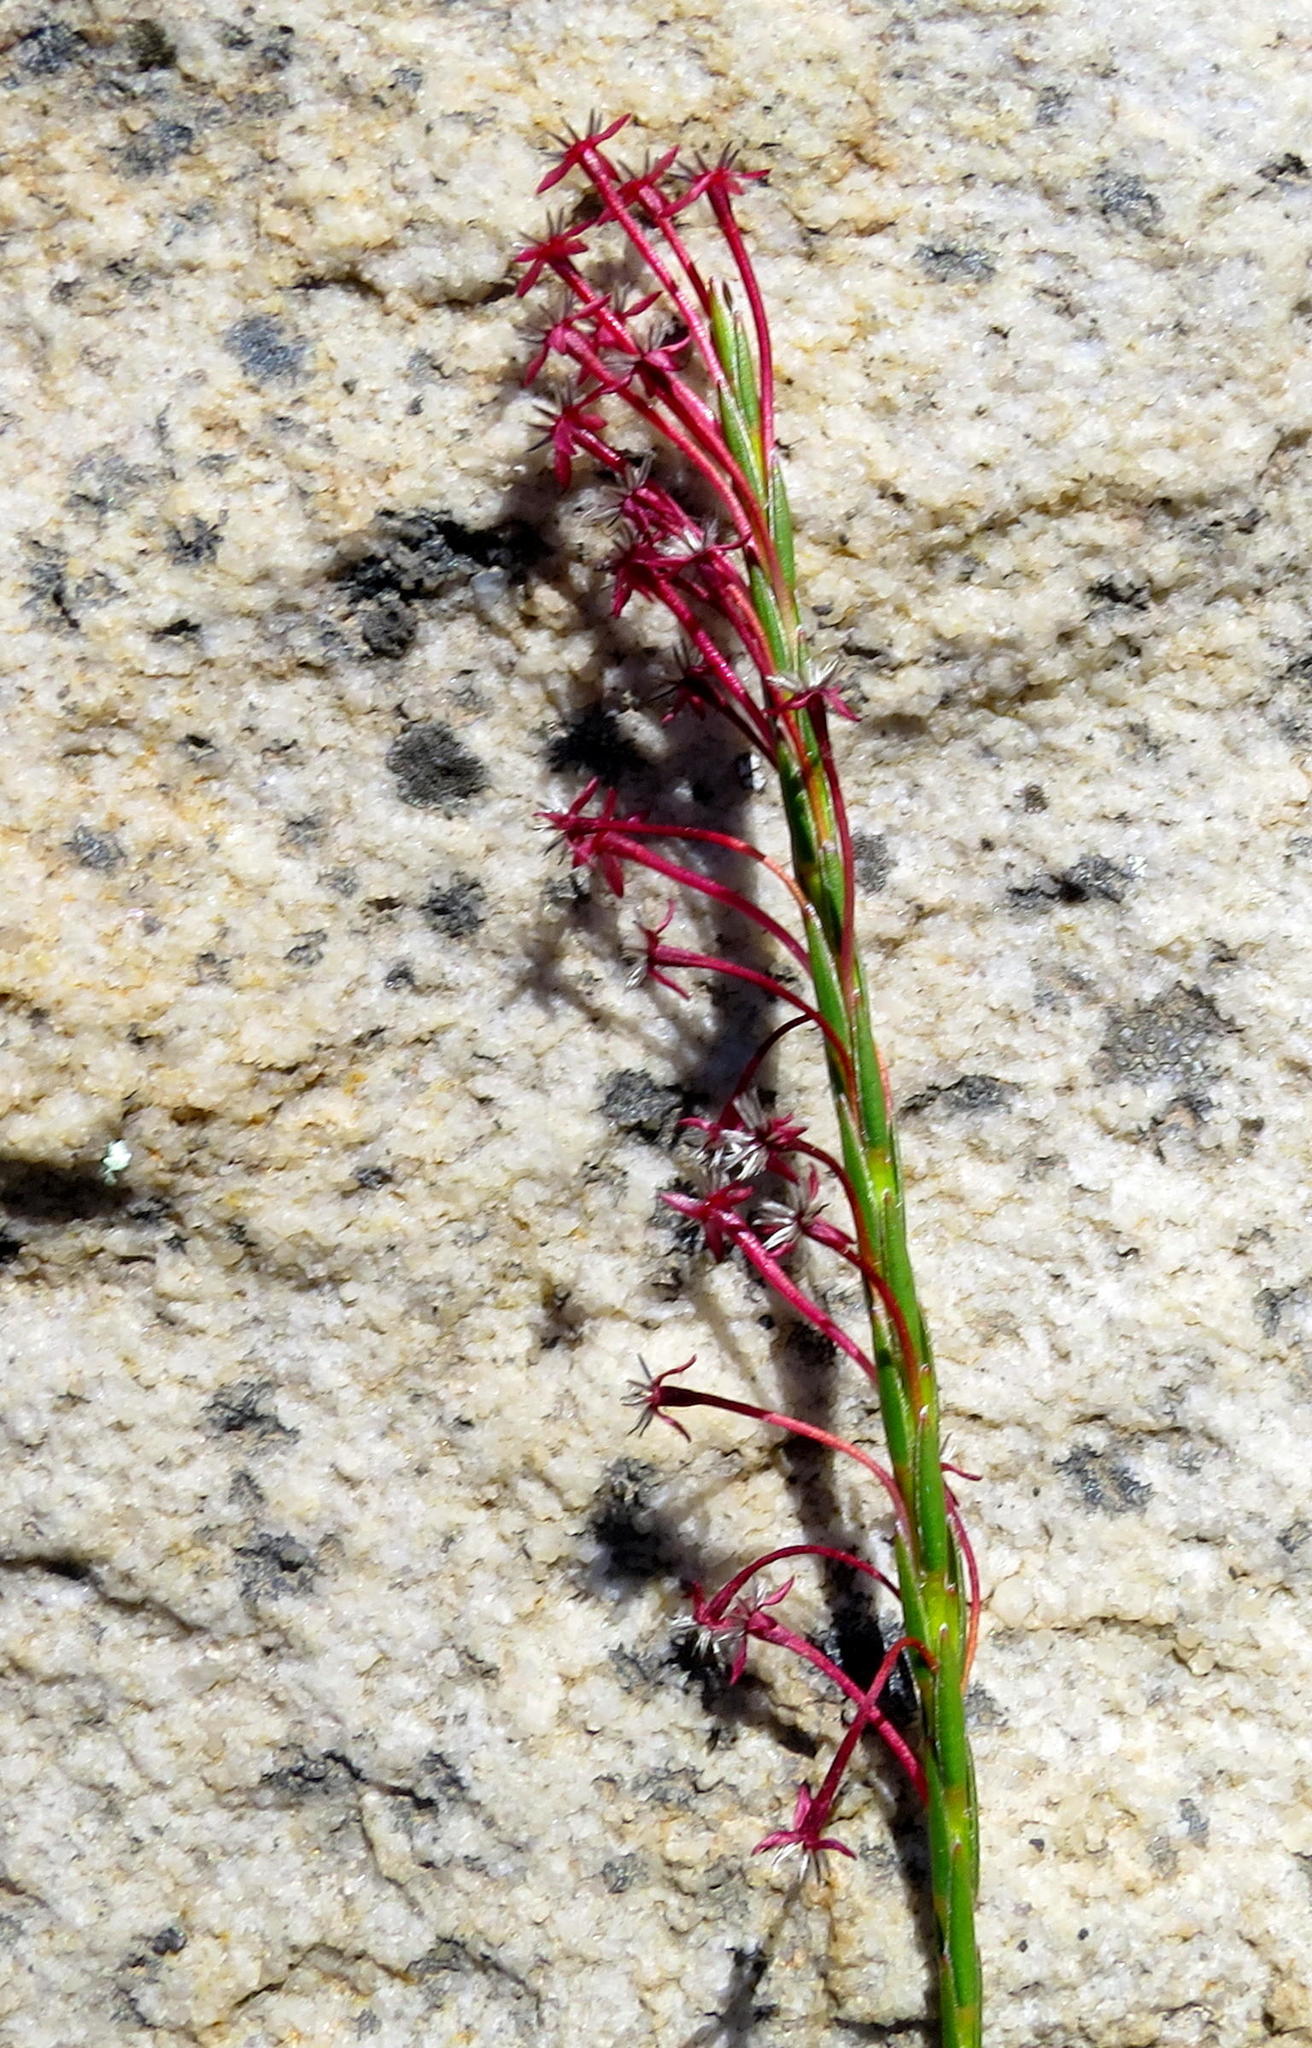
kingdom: Plantae
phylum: Tracheophyta
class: Magnoliopsida
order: Malvales
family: Thymelaeaceae
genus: Struthiola
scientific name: Struthiola macowanii
